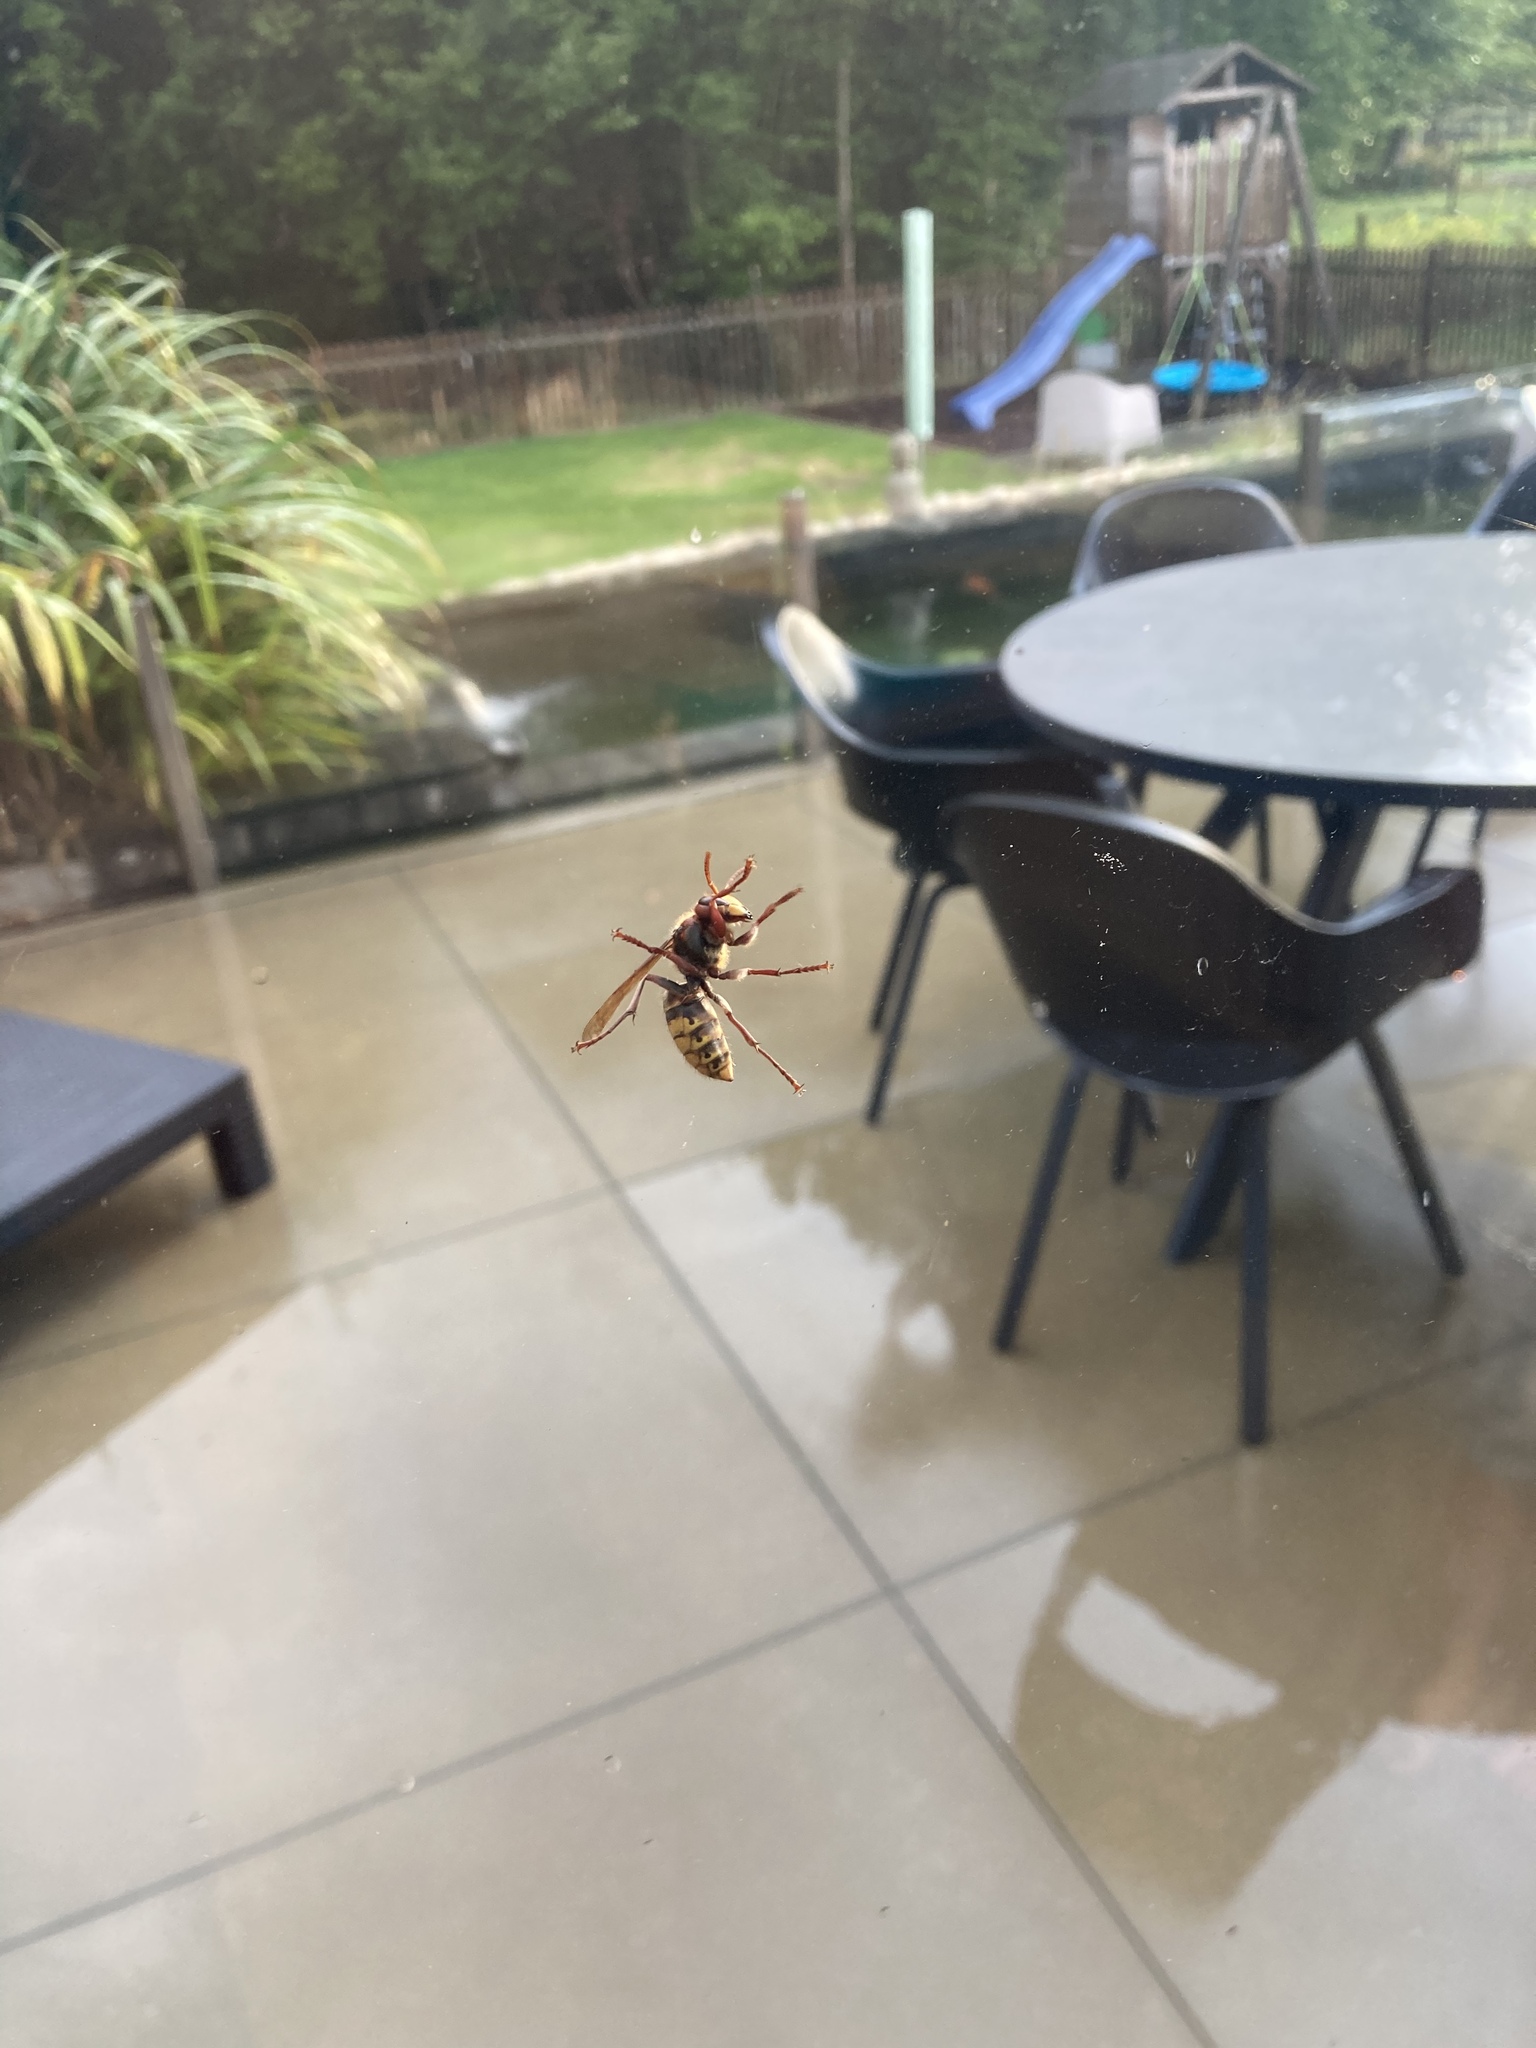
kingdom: Animalia
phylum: Arthropoda
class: Insecta
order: Hymenoptera
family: Vespidae
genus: Vespa
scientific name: Vespa crabro
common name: Hornet
